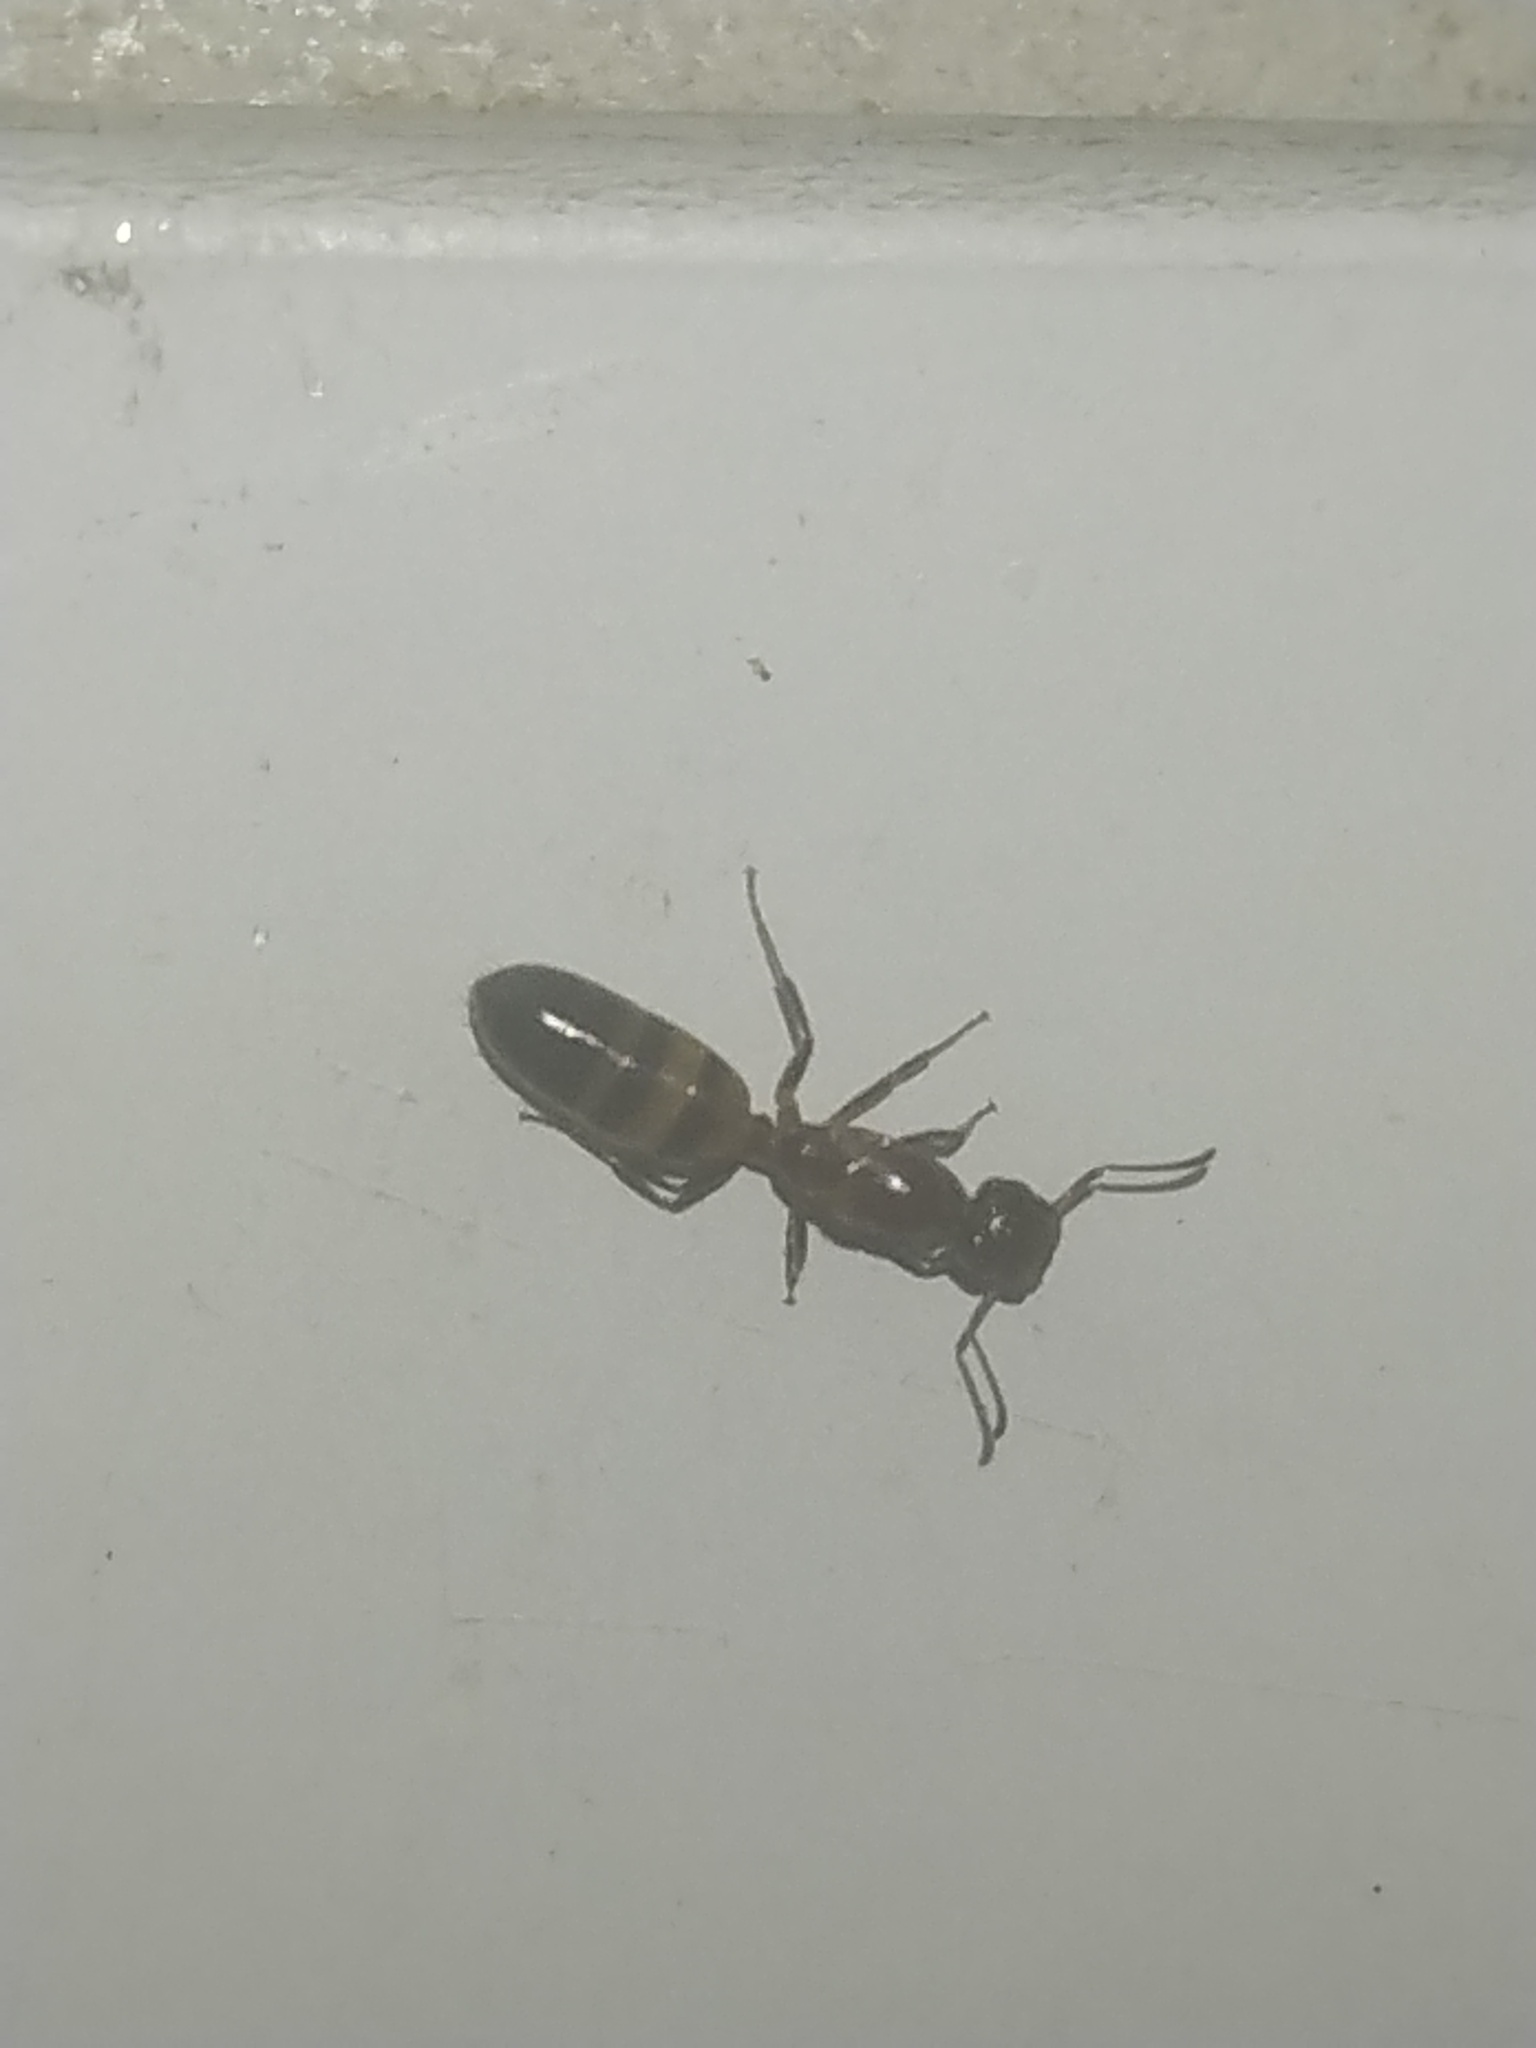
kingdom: Animalia
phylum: Arthropoda
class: Insecta
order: Hymenoptera
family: Formicidae
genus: Colobopsis
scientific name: Colobopsis impressa
